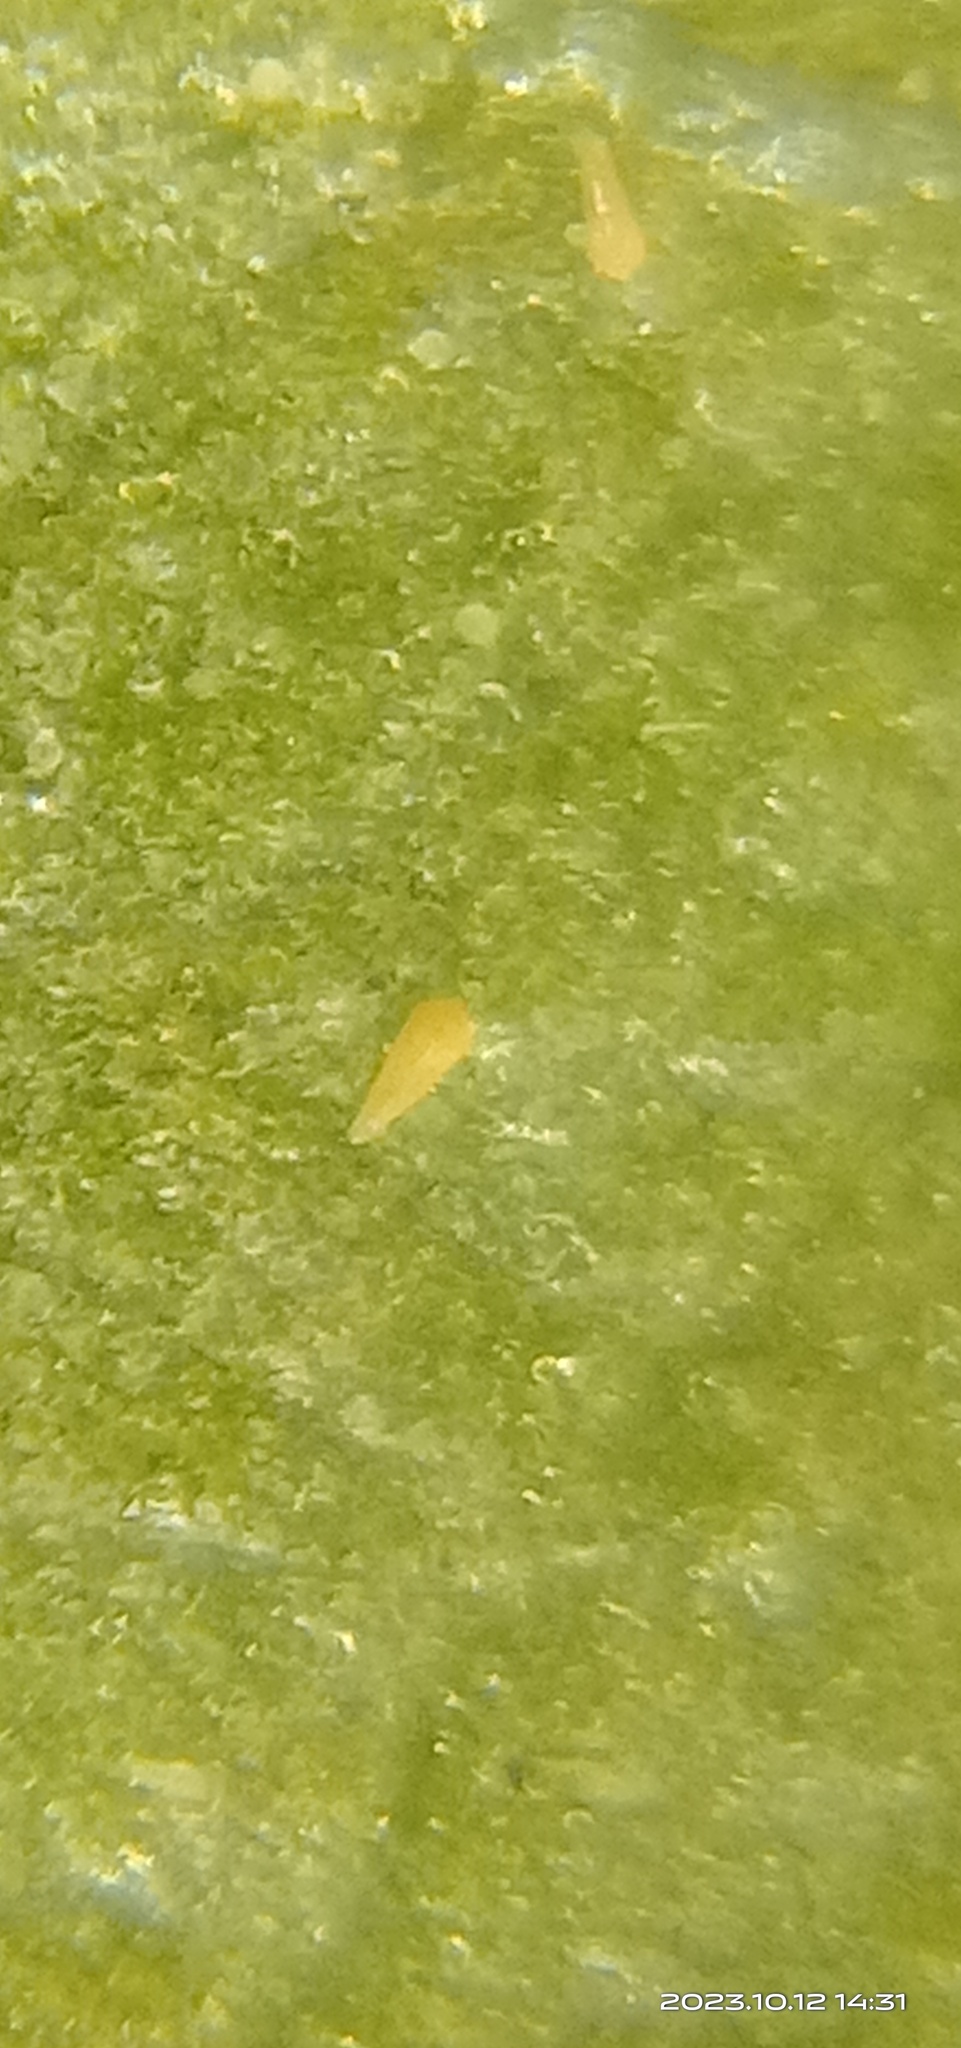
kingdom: Animalia
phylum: Arthropoda
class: Arachnida
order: Trombidiformes
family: Eriophyidae
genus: Phyllocoptruta
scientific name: Phyllocoptruta oleivora
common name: Citrus rust mite
